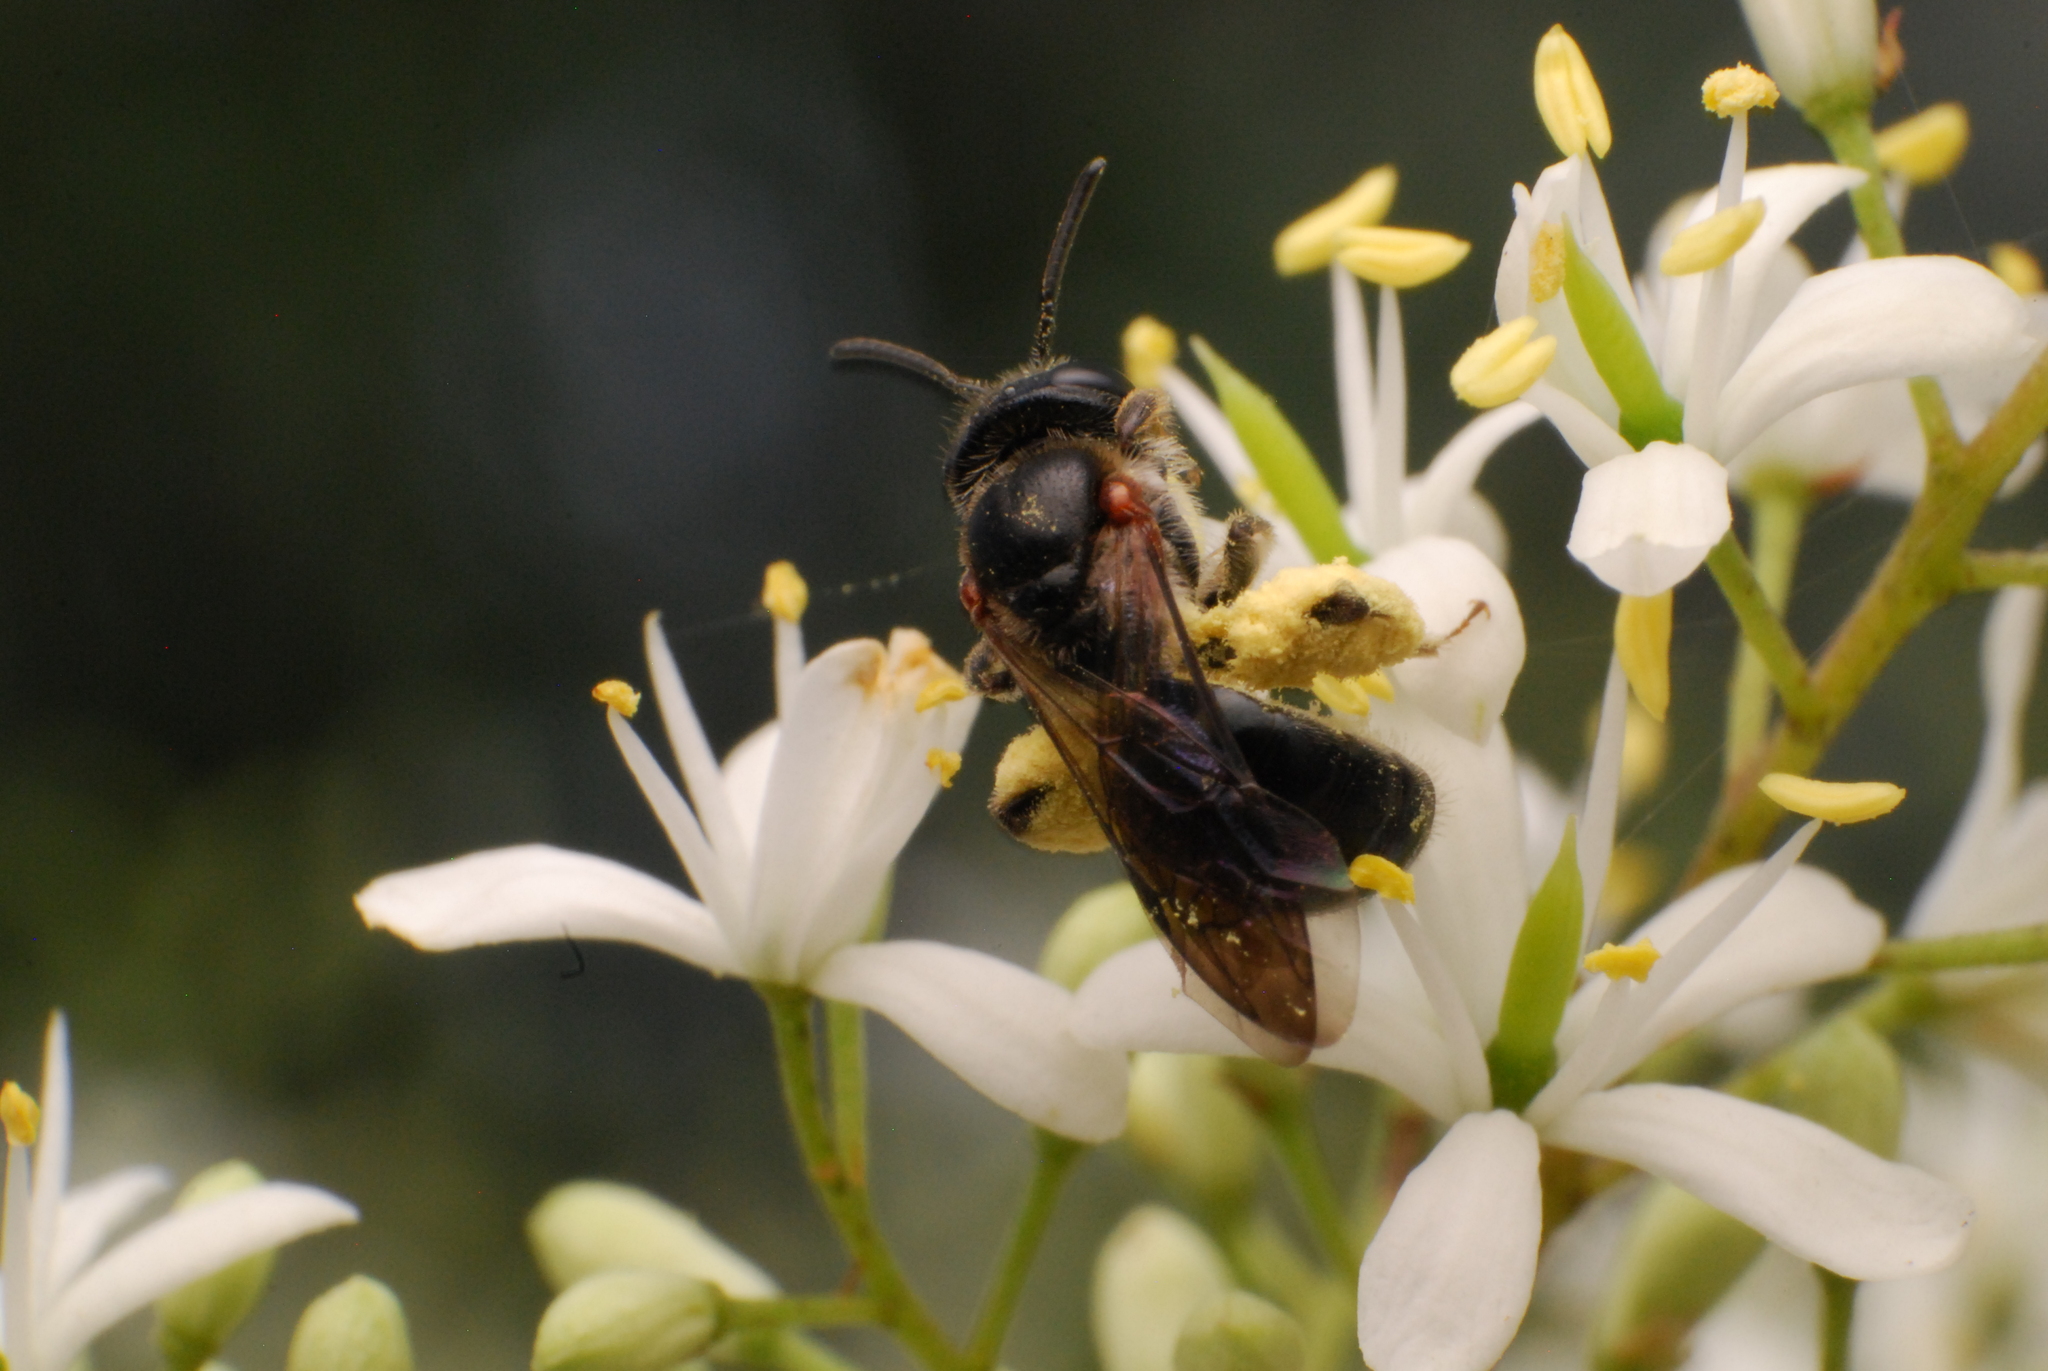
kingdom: Animalia
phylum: Arthropoda
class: Insecta
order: Hymenoptera
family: Colletidae
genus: Leioproctus
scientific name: Leioproctus launcestonensis
